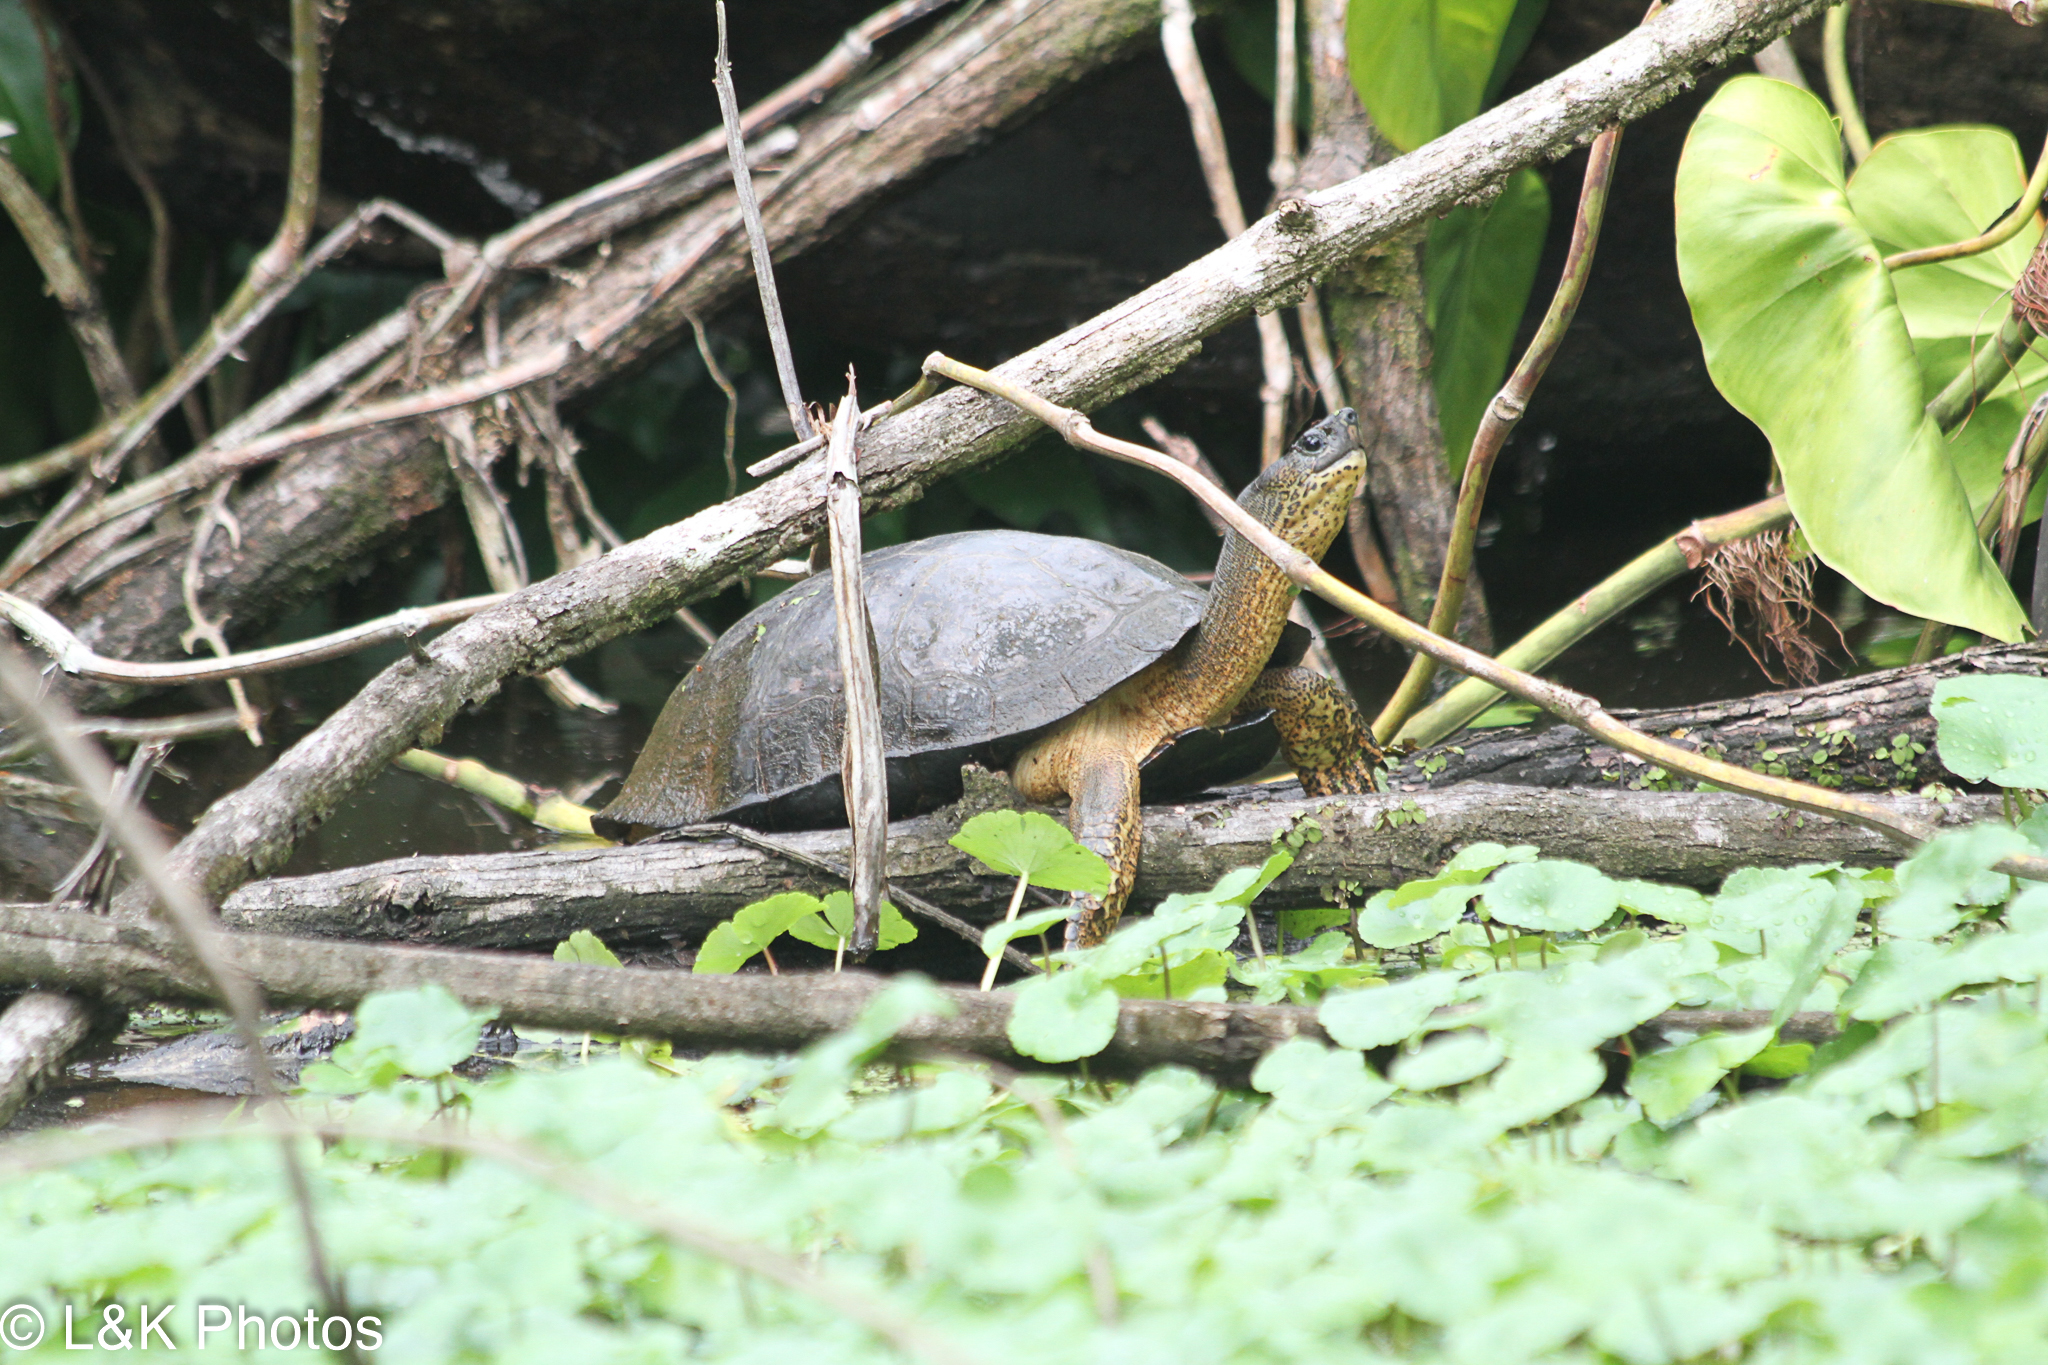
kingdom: Animalia
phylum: Chordata
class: Testudines
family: Geoemydidae
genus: Rhinoclemmys
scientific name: Rhinoclemmys funerea
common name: Black wood turtle
